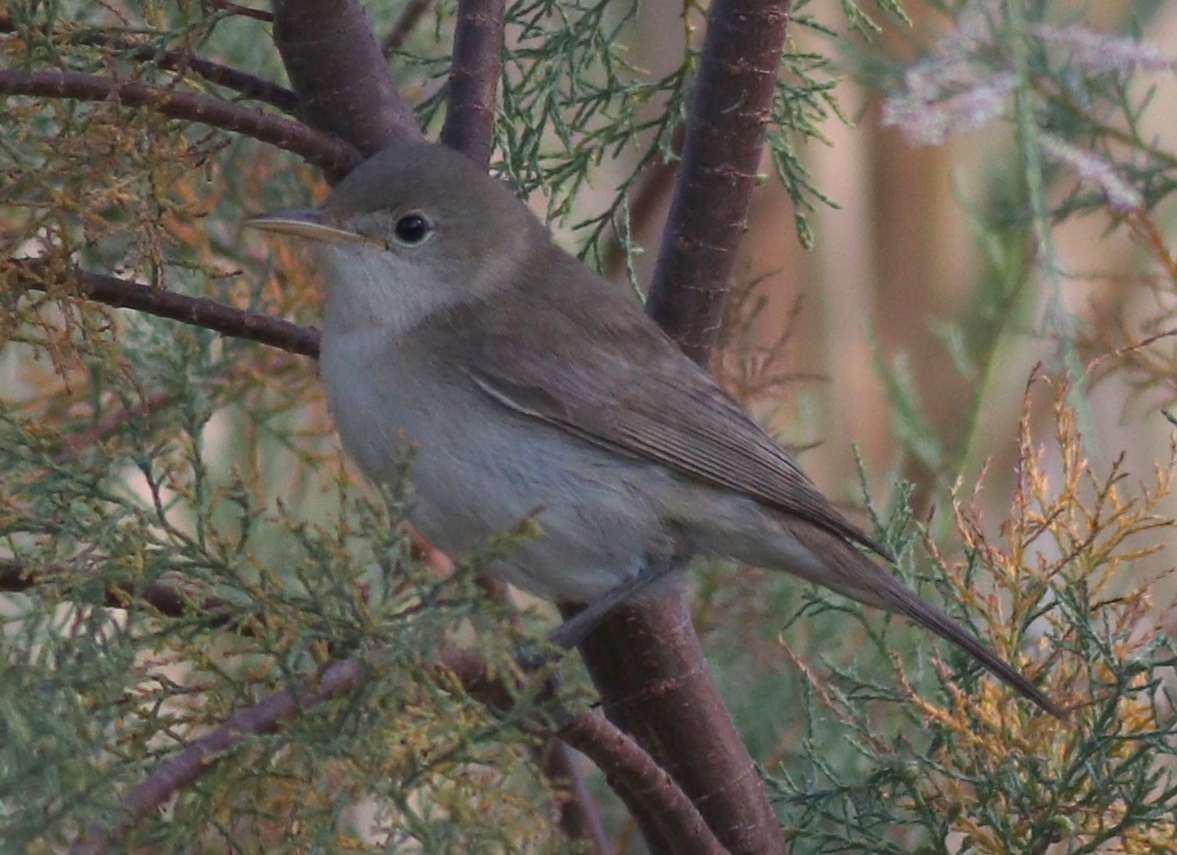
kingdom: Animalia
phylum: Chordata
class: Aves
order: Passeriformes
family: Acrocephalidae
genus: Iduna
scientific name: Iduna opaca
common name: Western olivaceous warbler
